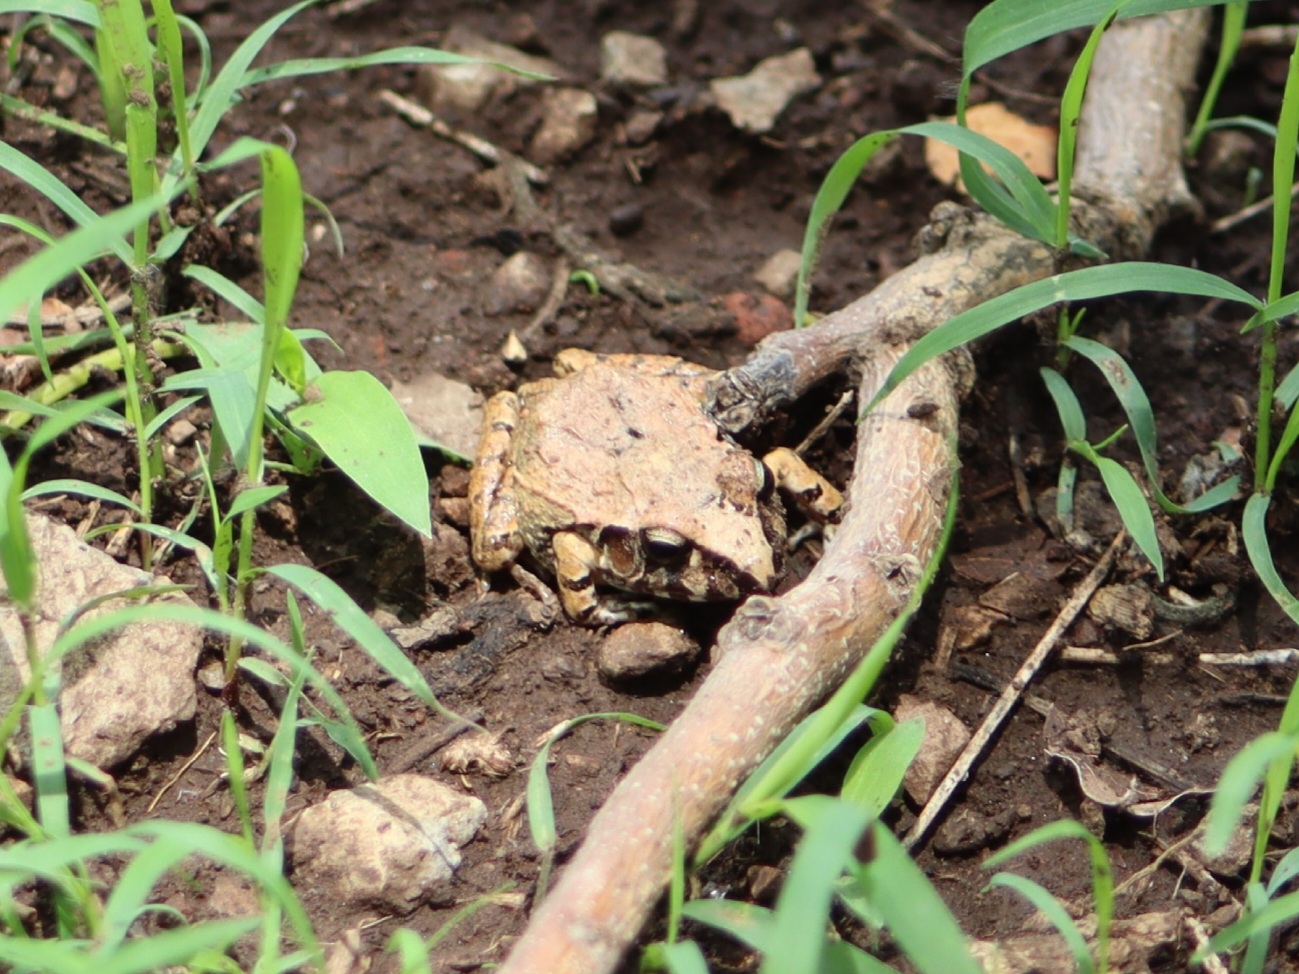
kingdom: Animalia
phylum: Chordata
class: Amphibia
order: Anura
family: Craugastoridae
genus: Craugastor
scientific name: Craugastor occidentalis
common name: Taylor's barking frog
